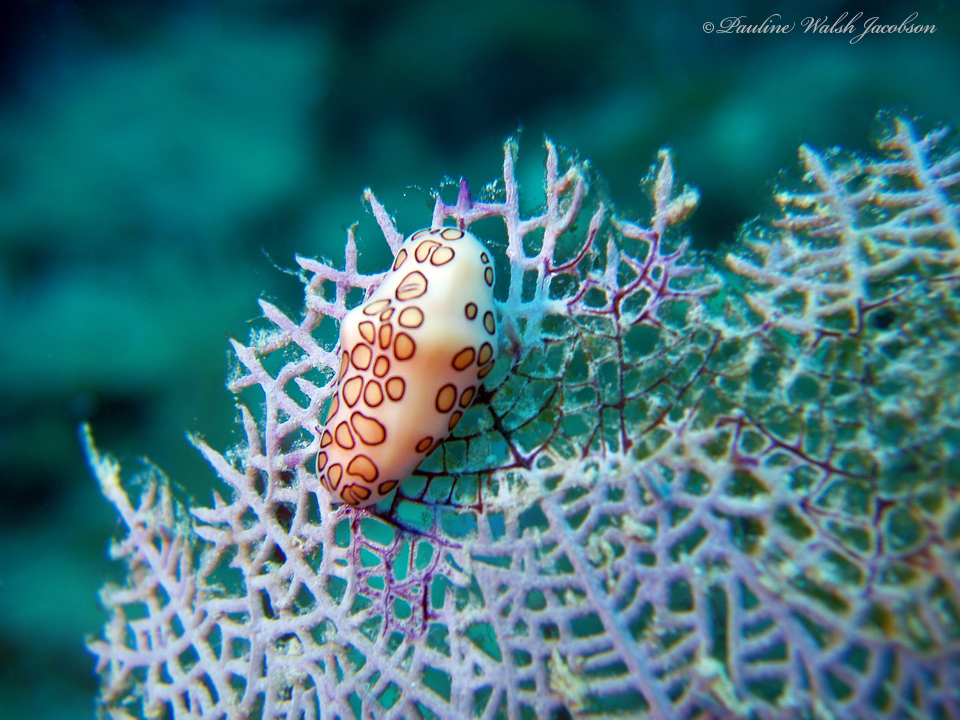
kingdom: Animalia
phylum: Mollusca
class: Gastropoda
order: Littorinimorpha
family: Ovulidae
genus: Cyphoma
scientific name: Cyphoma gibbosum
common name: Flamingo tongue
